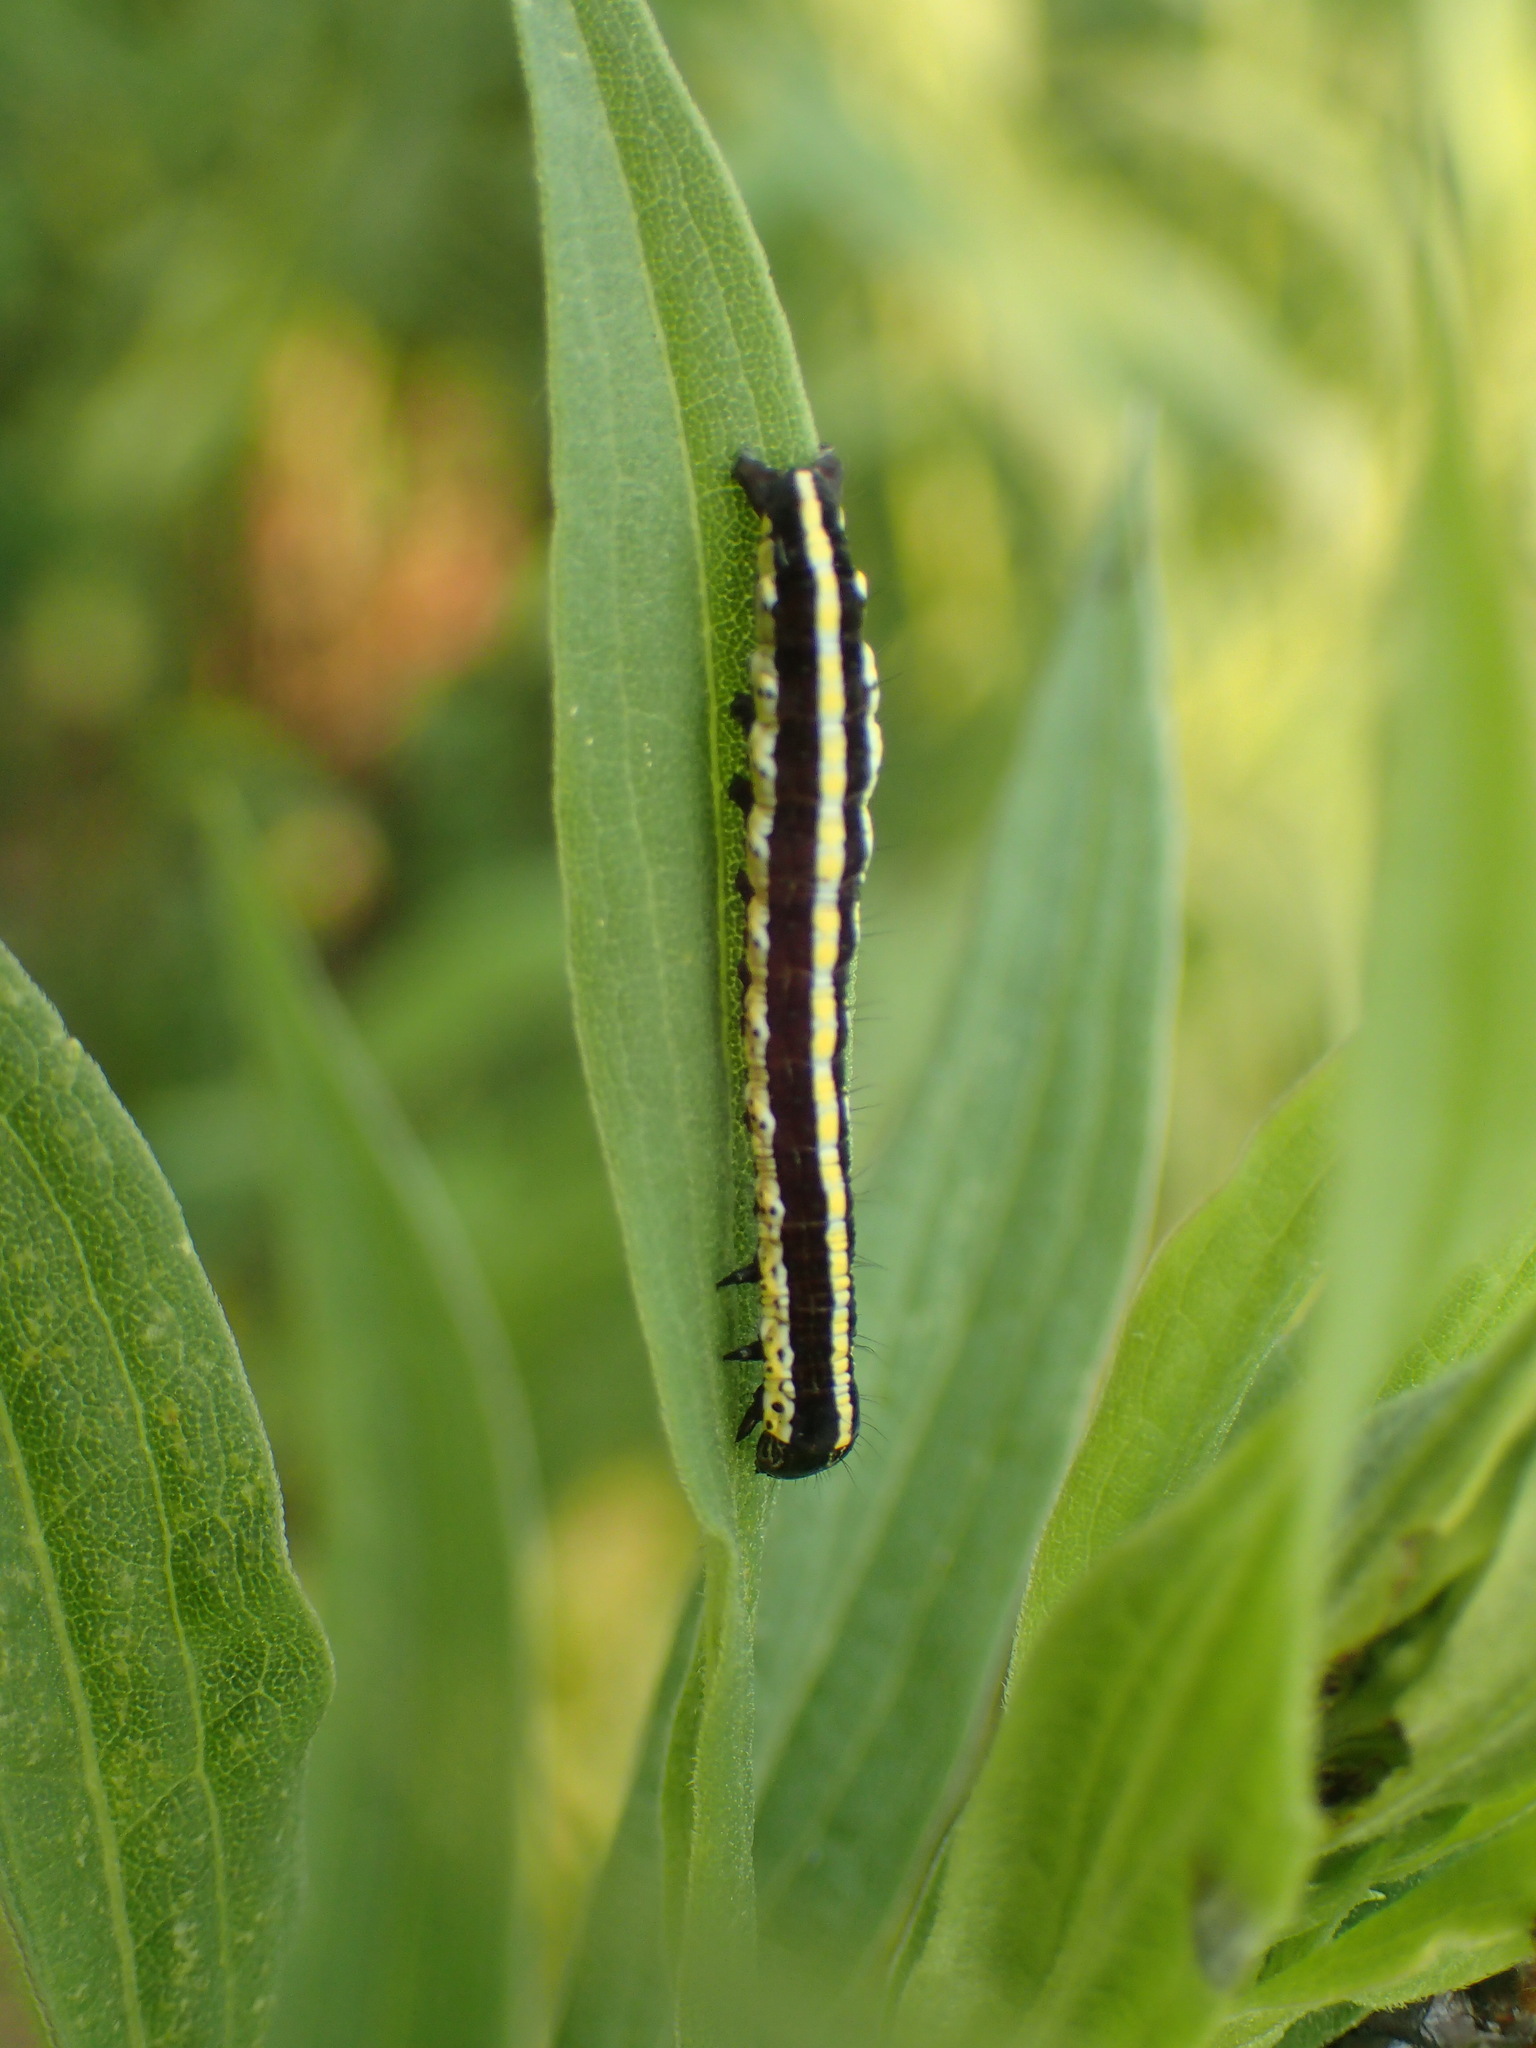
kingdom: Animalia
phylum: Arthropoda
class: Insecta
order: Lepidoptera
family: Noctuidae
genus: Cucullia
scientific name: Cucullia intermedia
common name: Goldenrod cutworm
